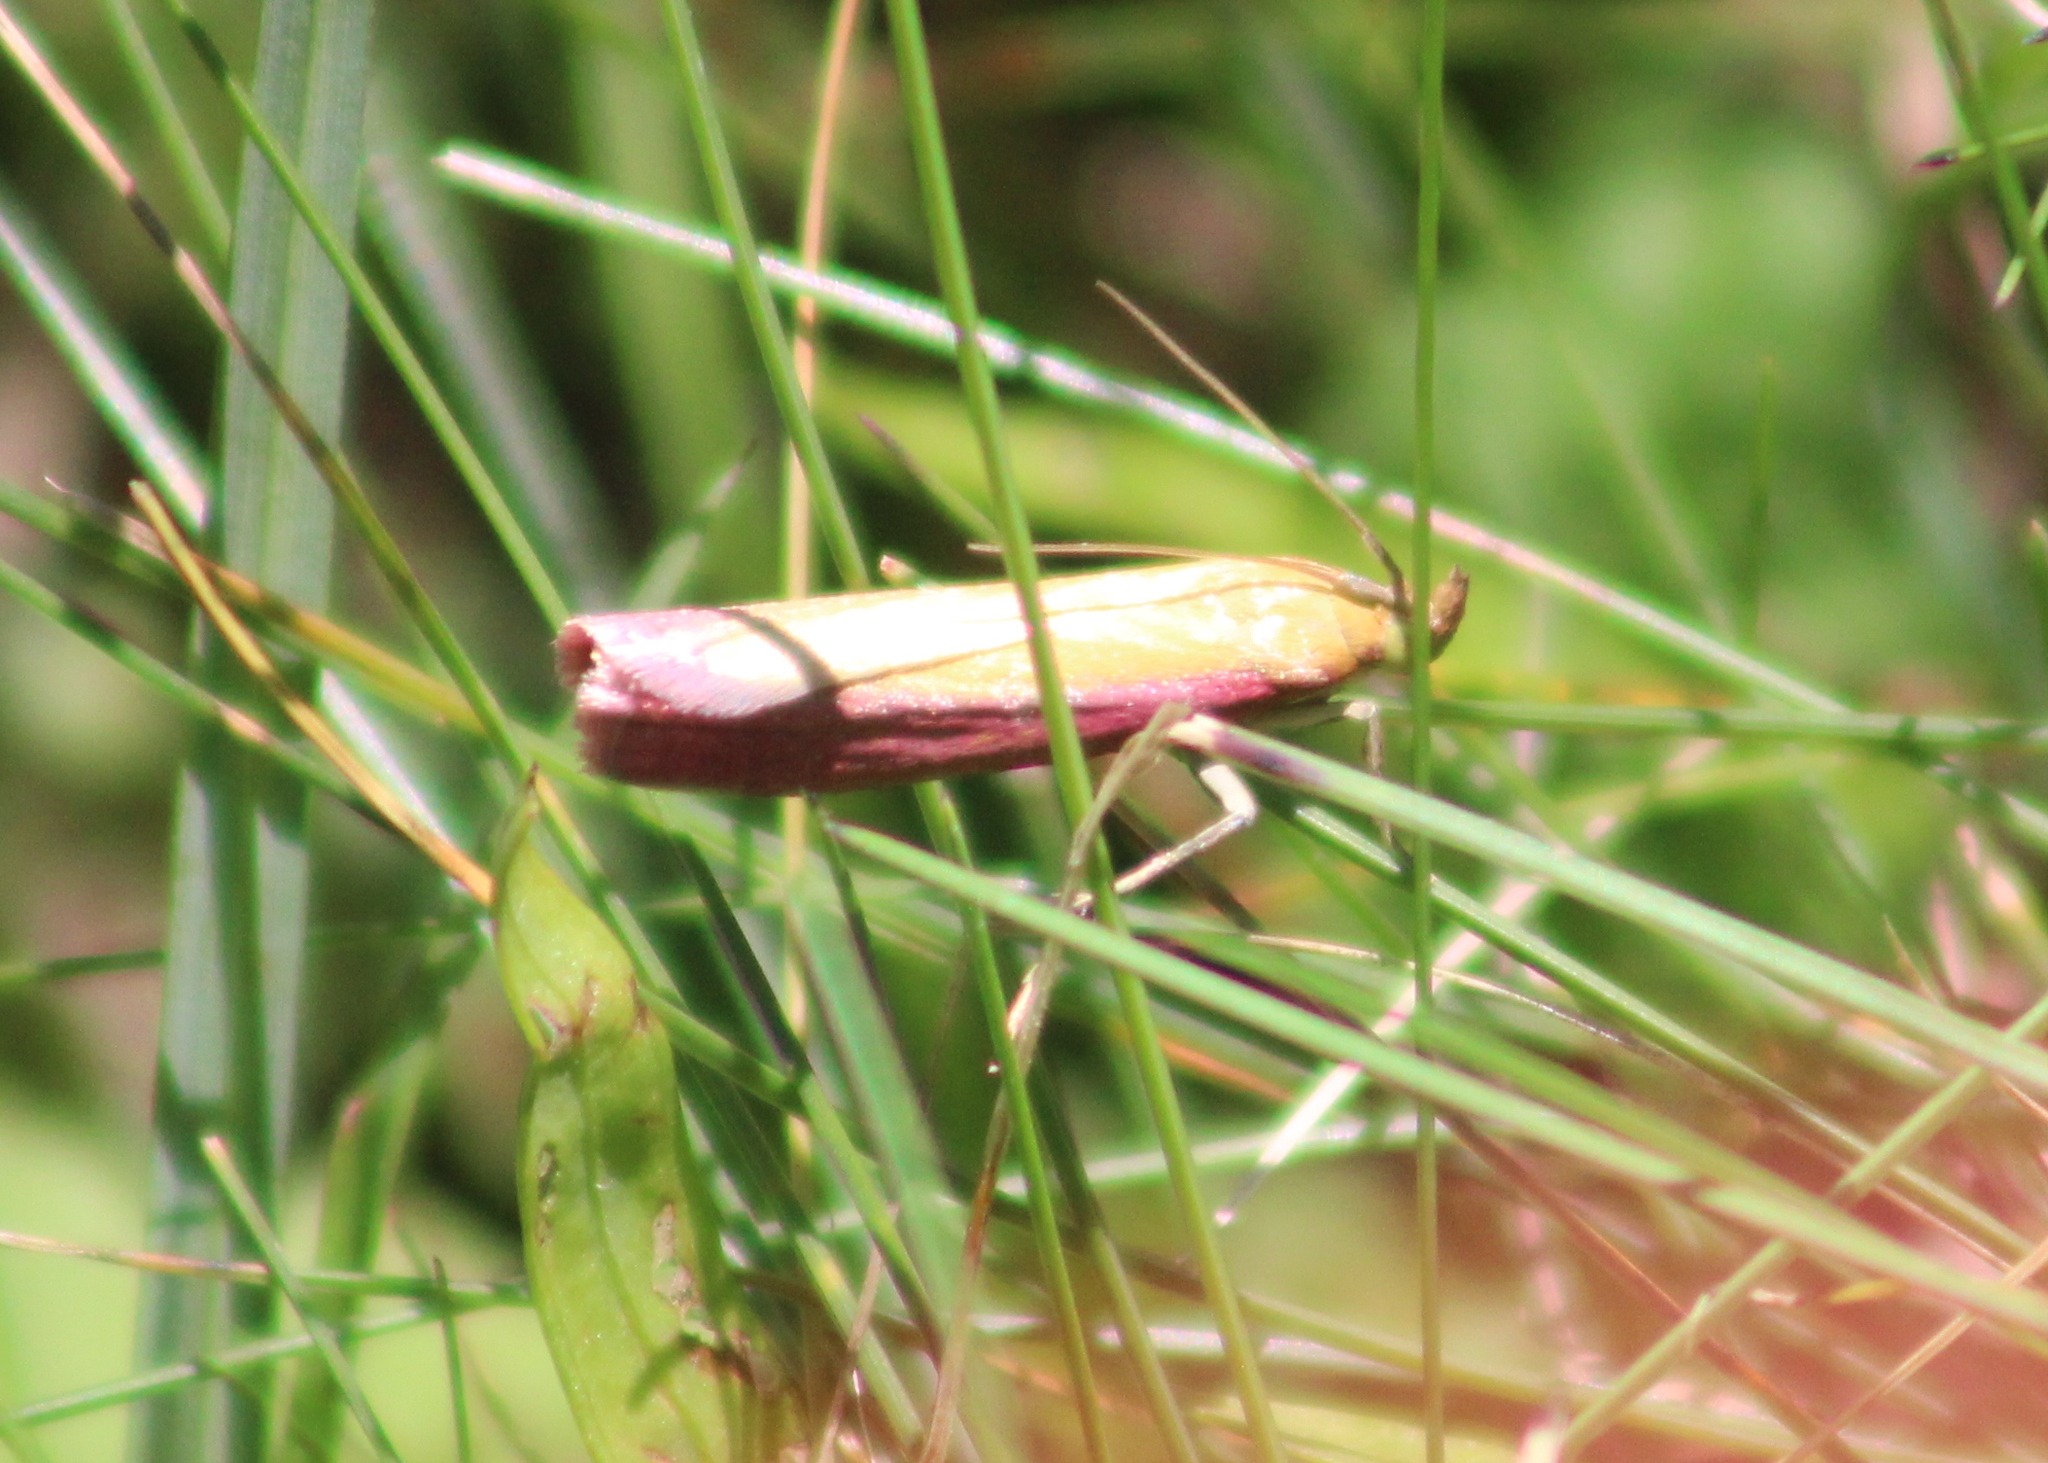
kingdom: Animalia
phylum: Arthropoda
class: Insecta
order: Lepidoptera
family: Pyralidae
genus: Oncocera
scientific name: Oncocera semirubella
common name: Rosy-striped knot-horn
